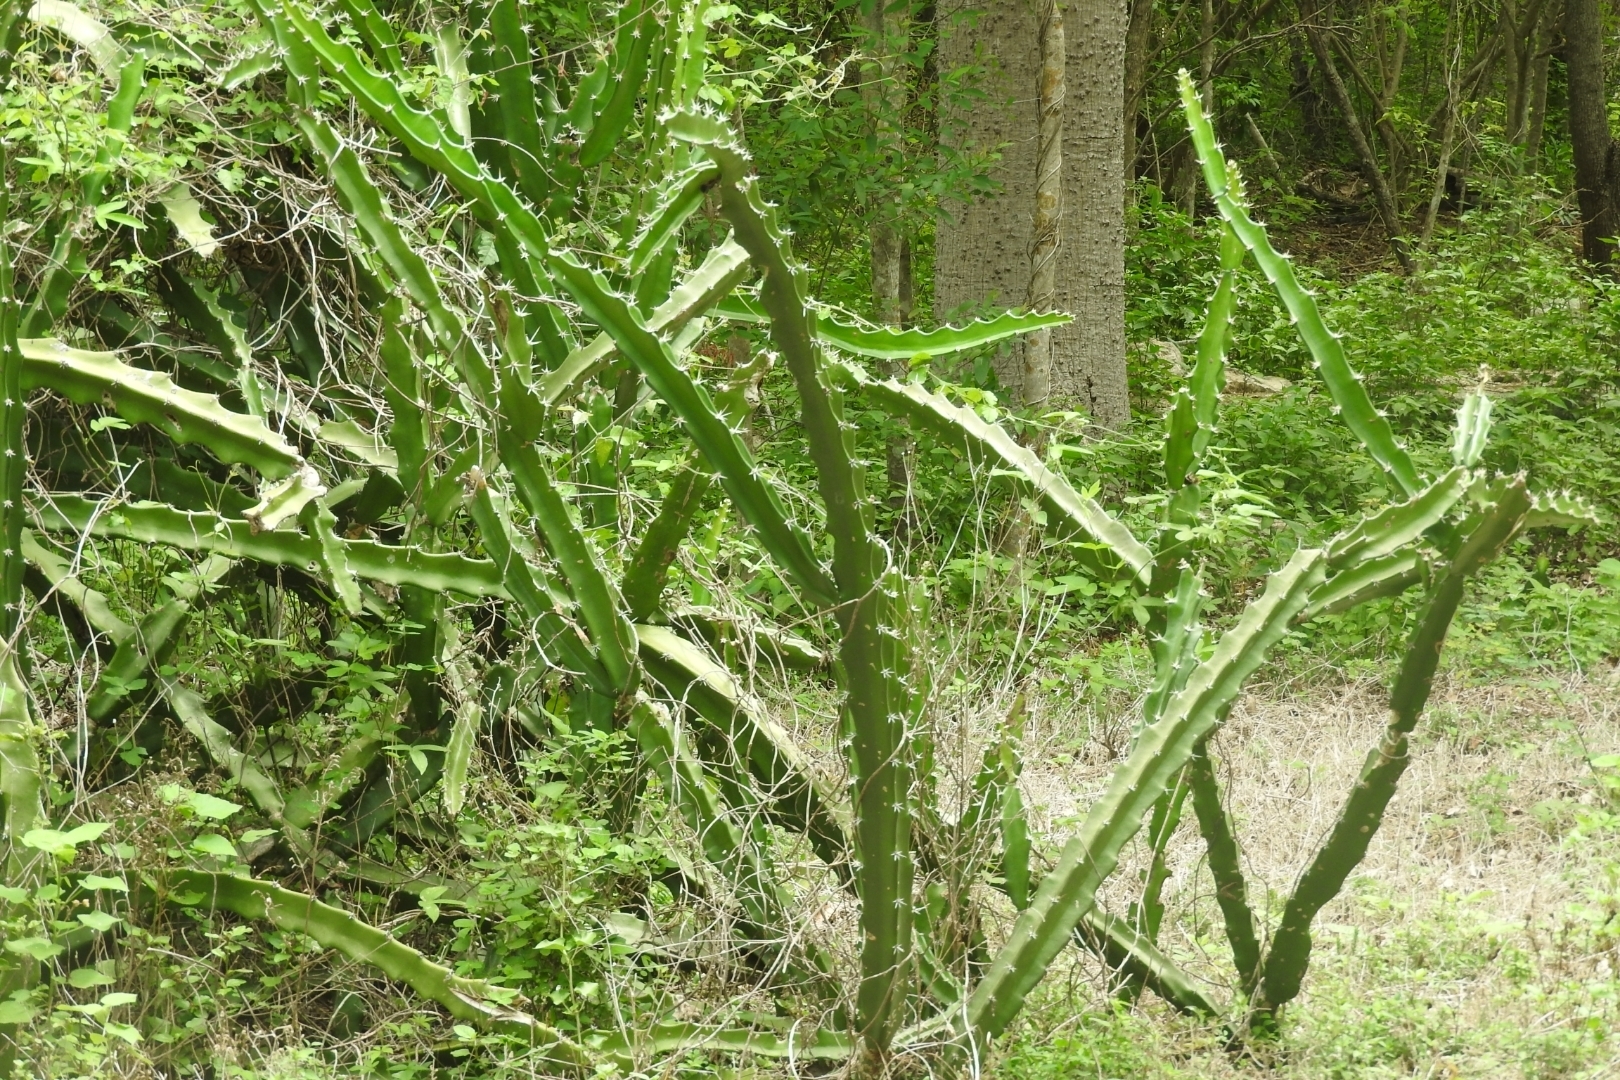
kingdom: Plantae
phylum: Tracheophyta
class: Magnoliopsida
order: Caryophyllales
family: Cactaceae
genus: Acanthocereus
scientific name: Acanthocereus tetragonus
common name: Triangle cactus
